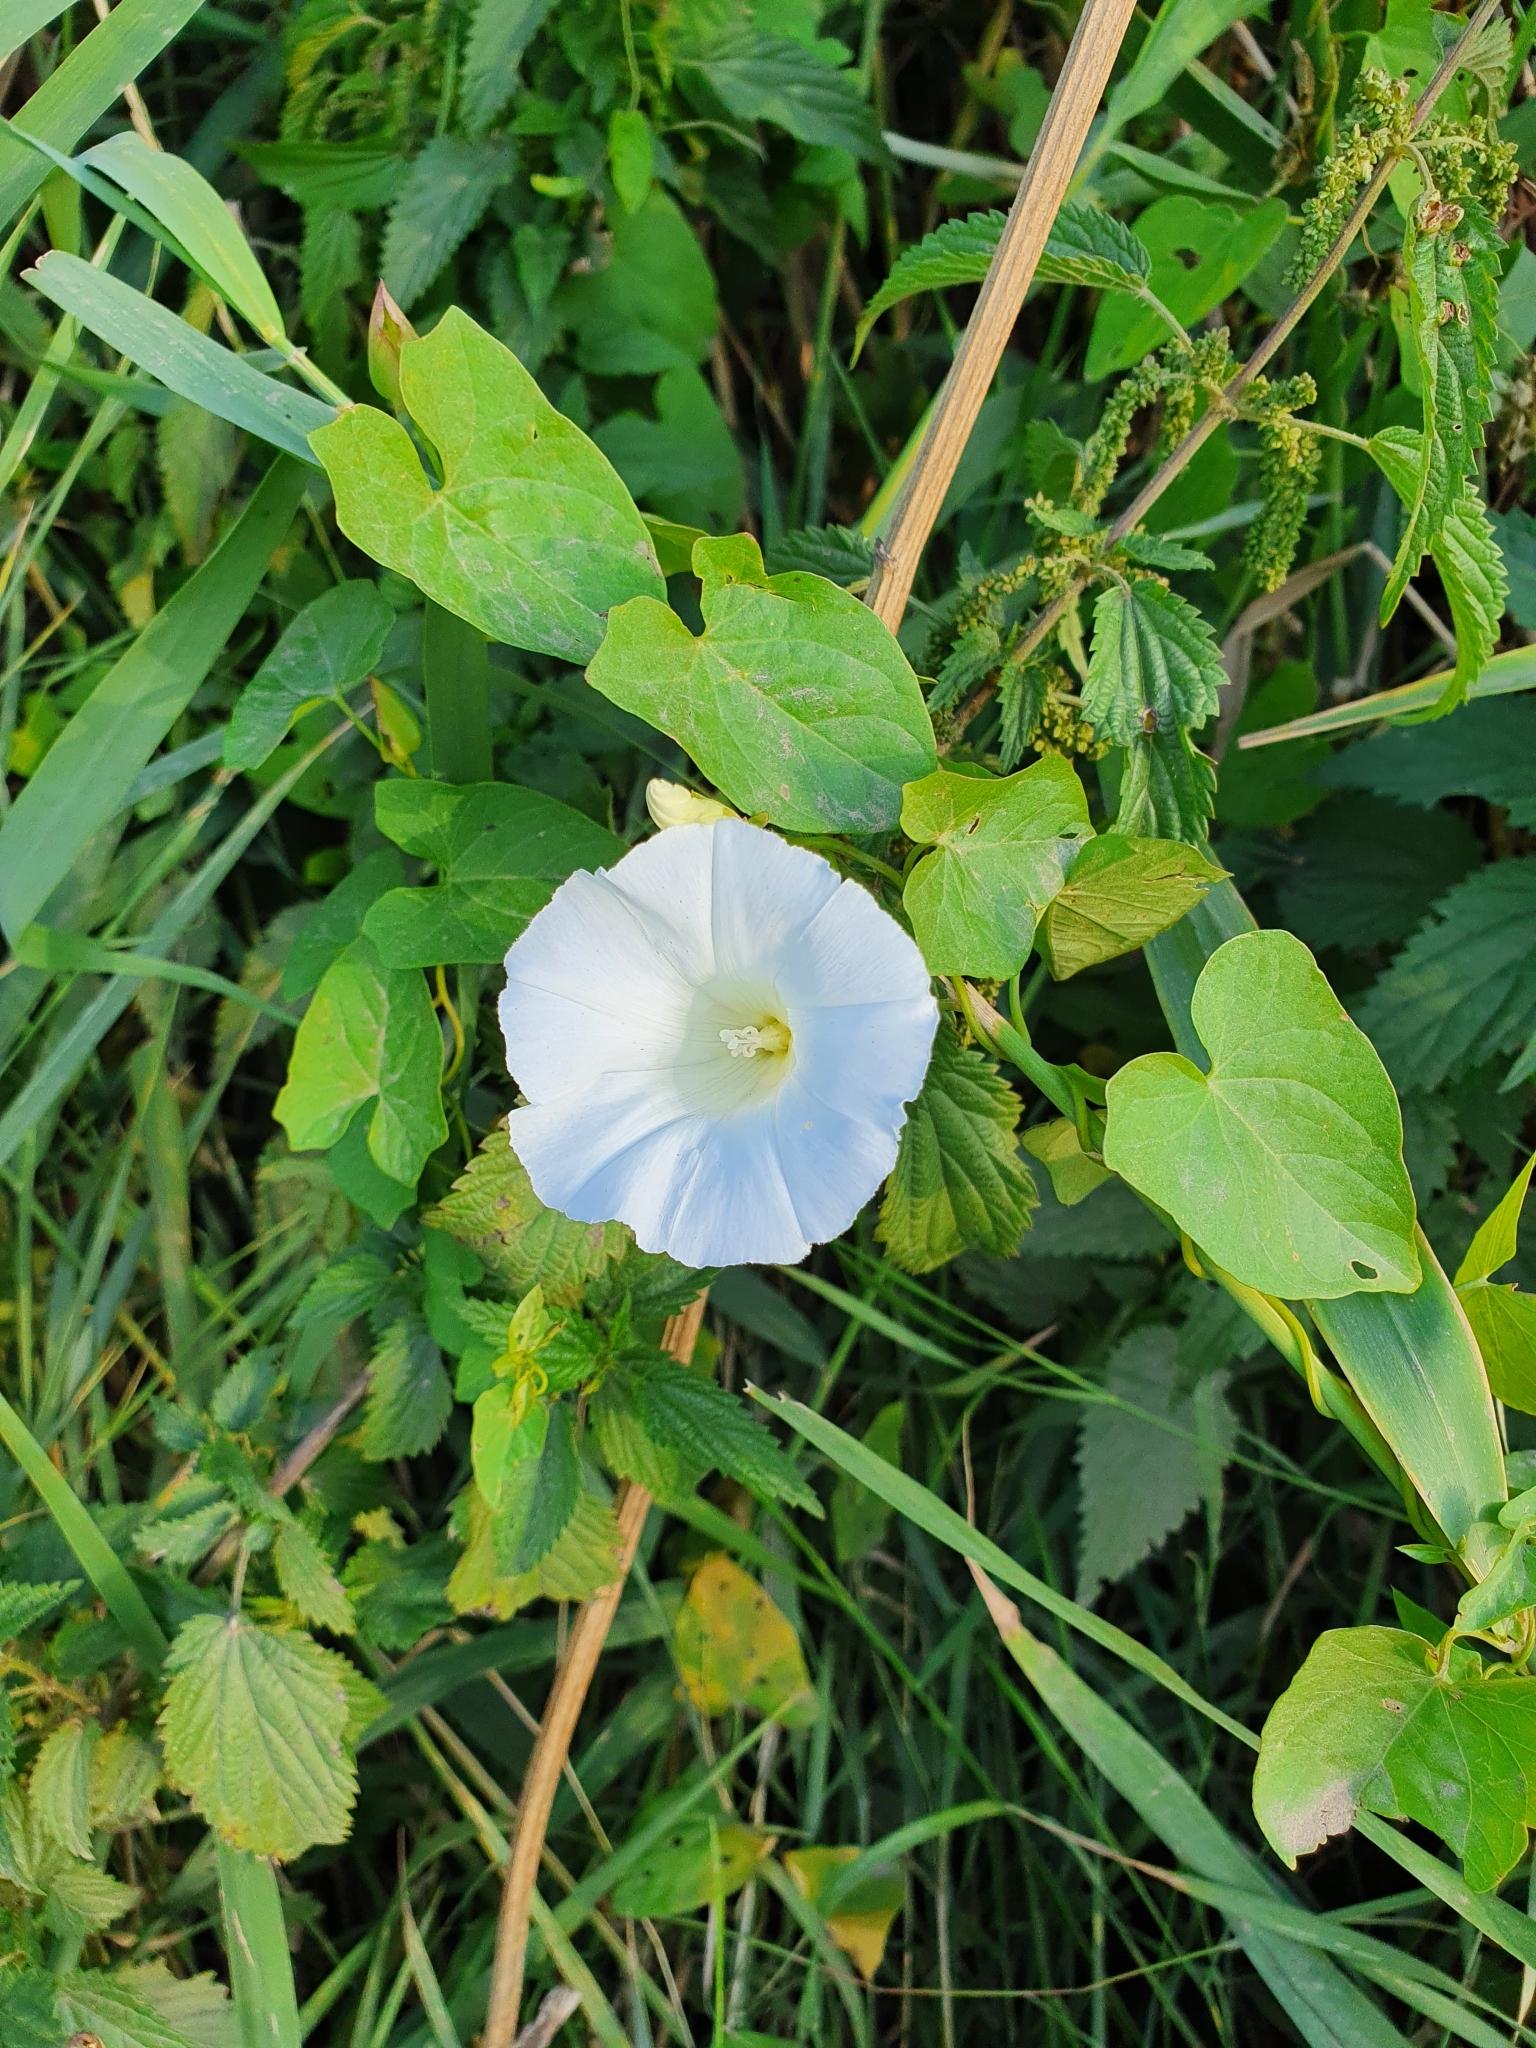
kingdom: Plantae
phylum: Tracheophyta
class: Magnoliopsida
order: Solanales
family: Convolvulaceae
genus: Calystegia
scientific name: Calystegia sepium
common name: Hedge bindweed
